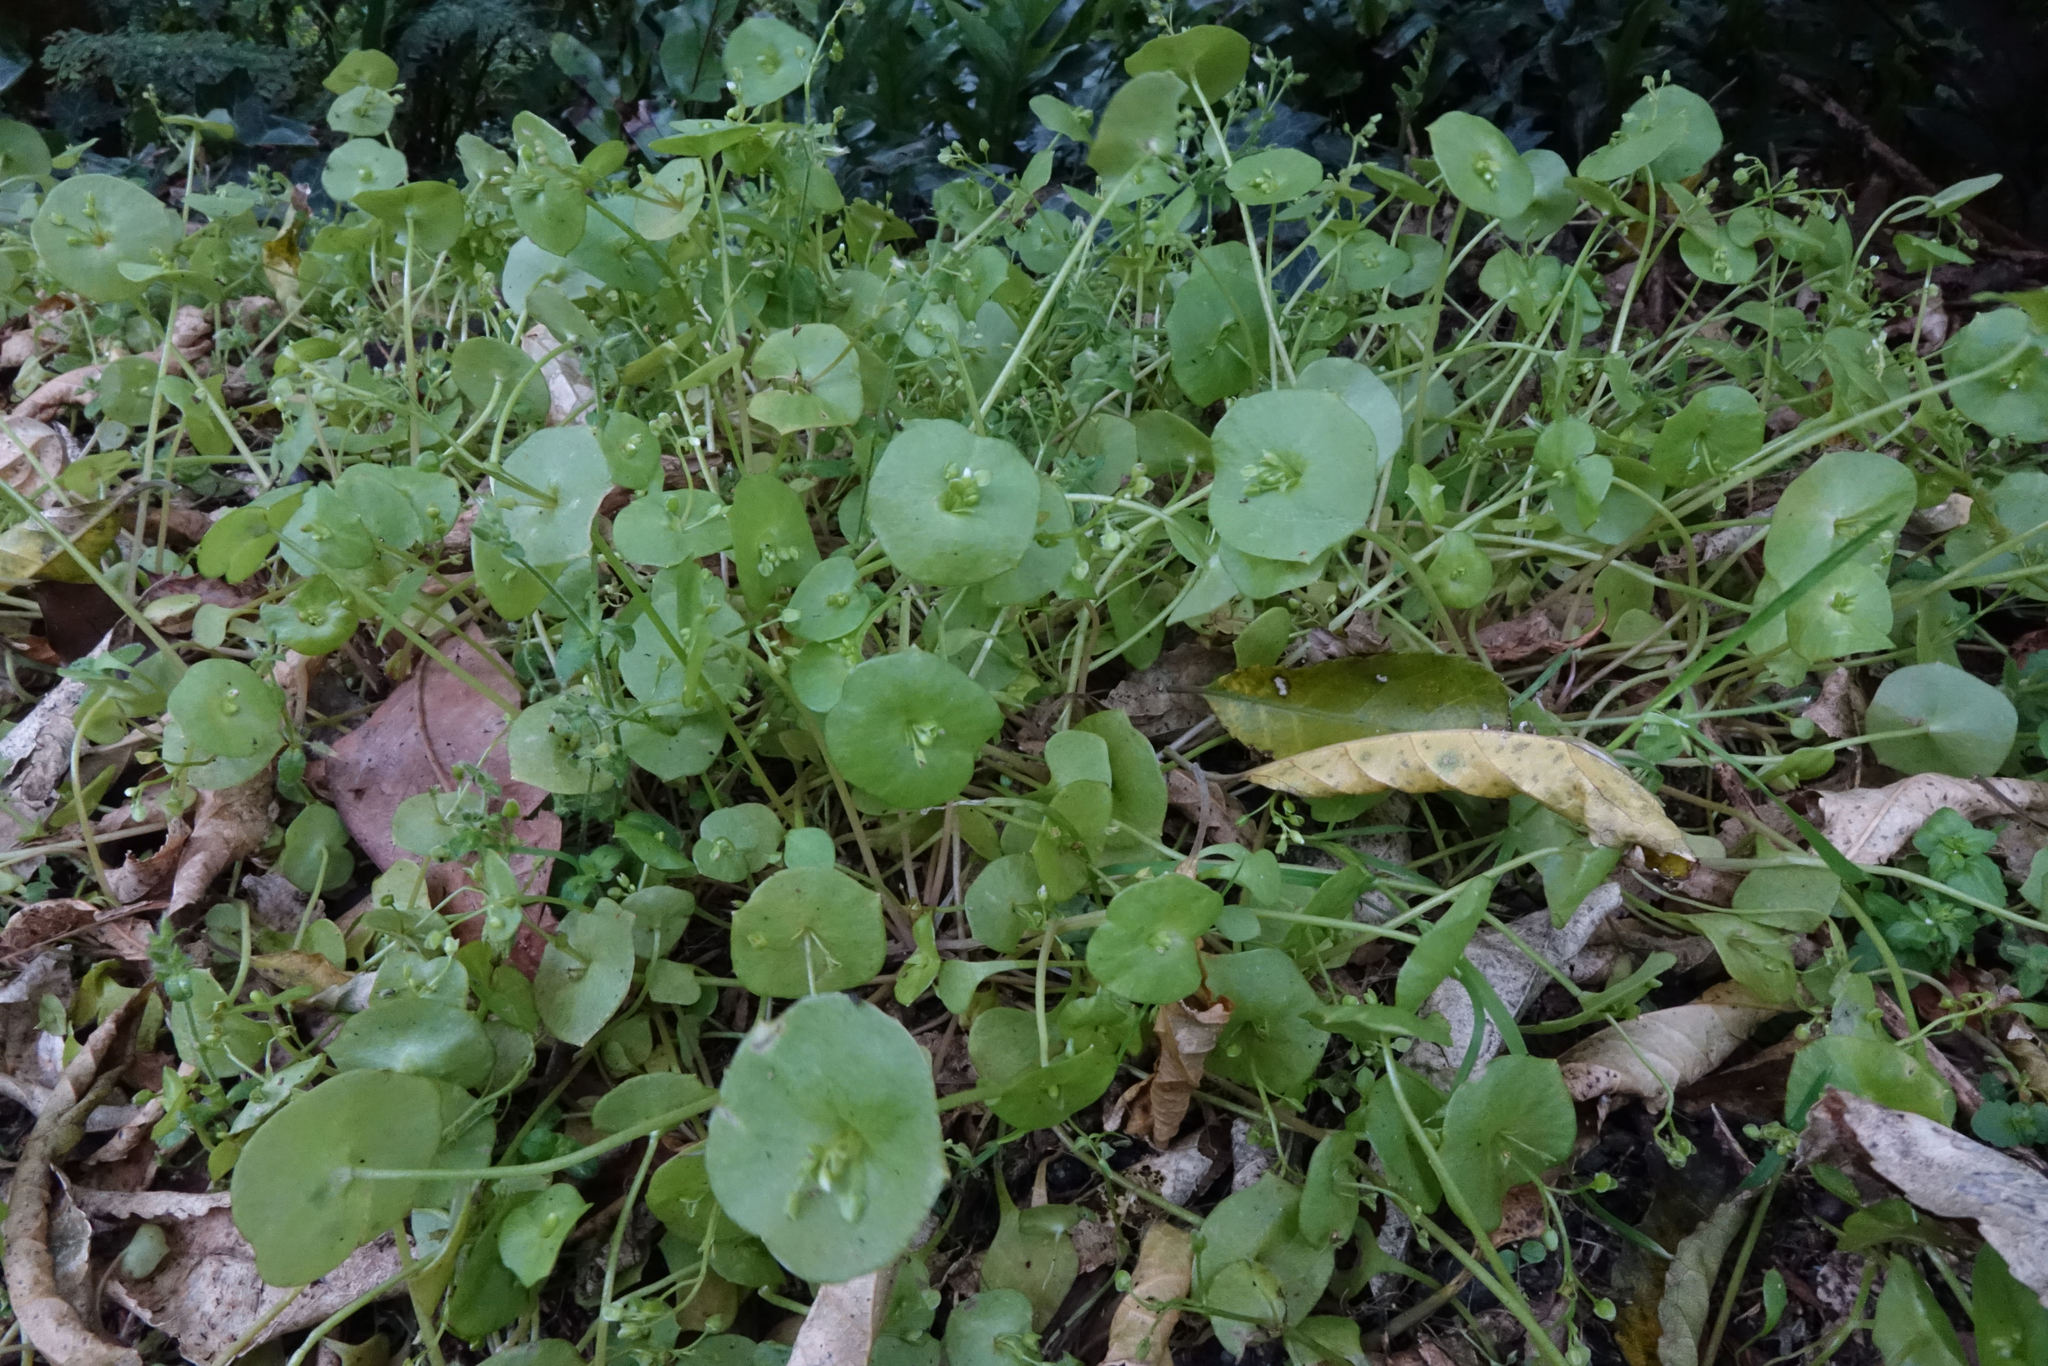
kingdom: Plantae
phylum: Tracheophyta
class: Magnoliopsida
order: Caryophyllales
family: Montiaceae
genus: Claytonia
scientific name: Claytonia perfoliata
